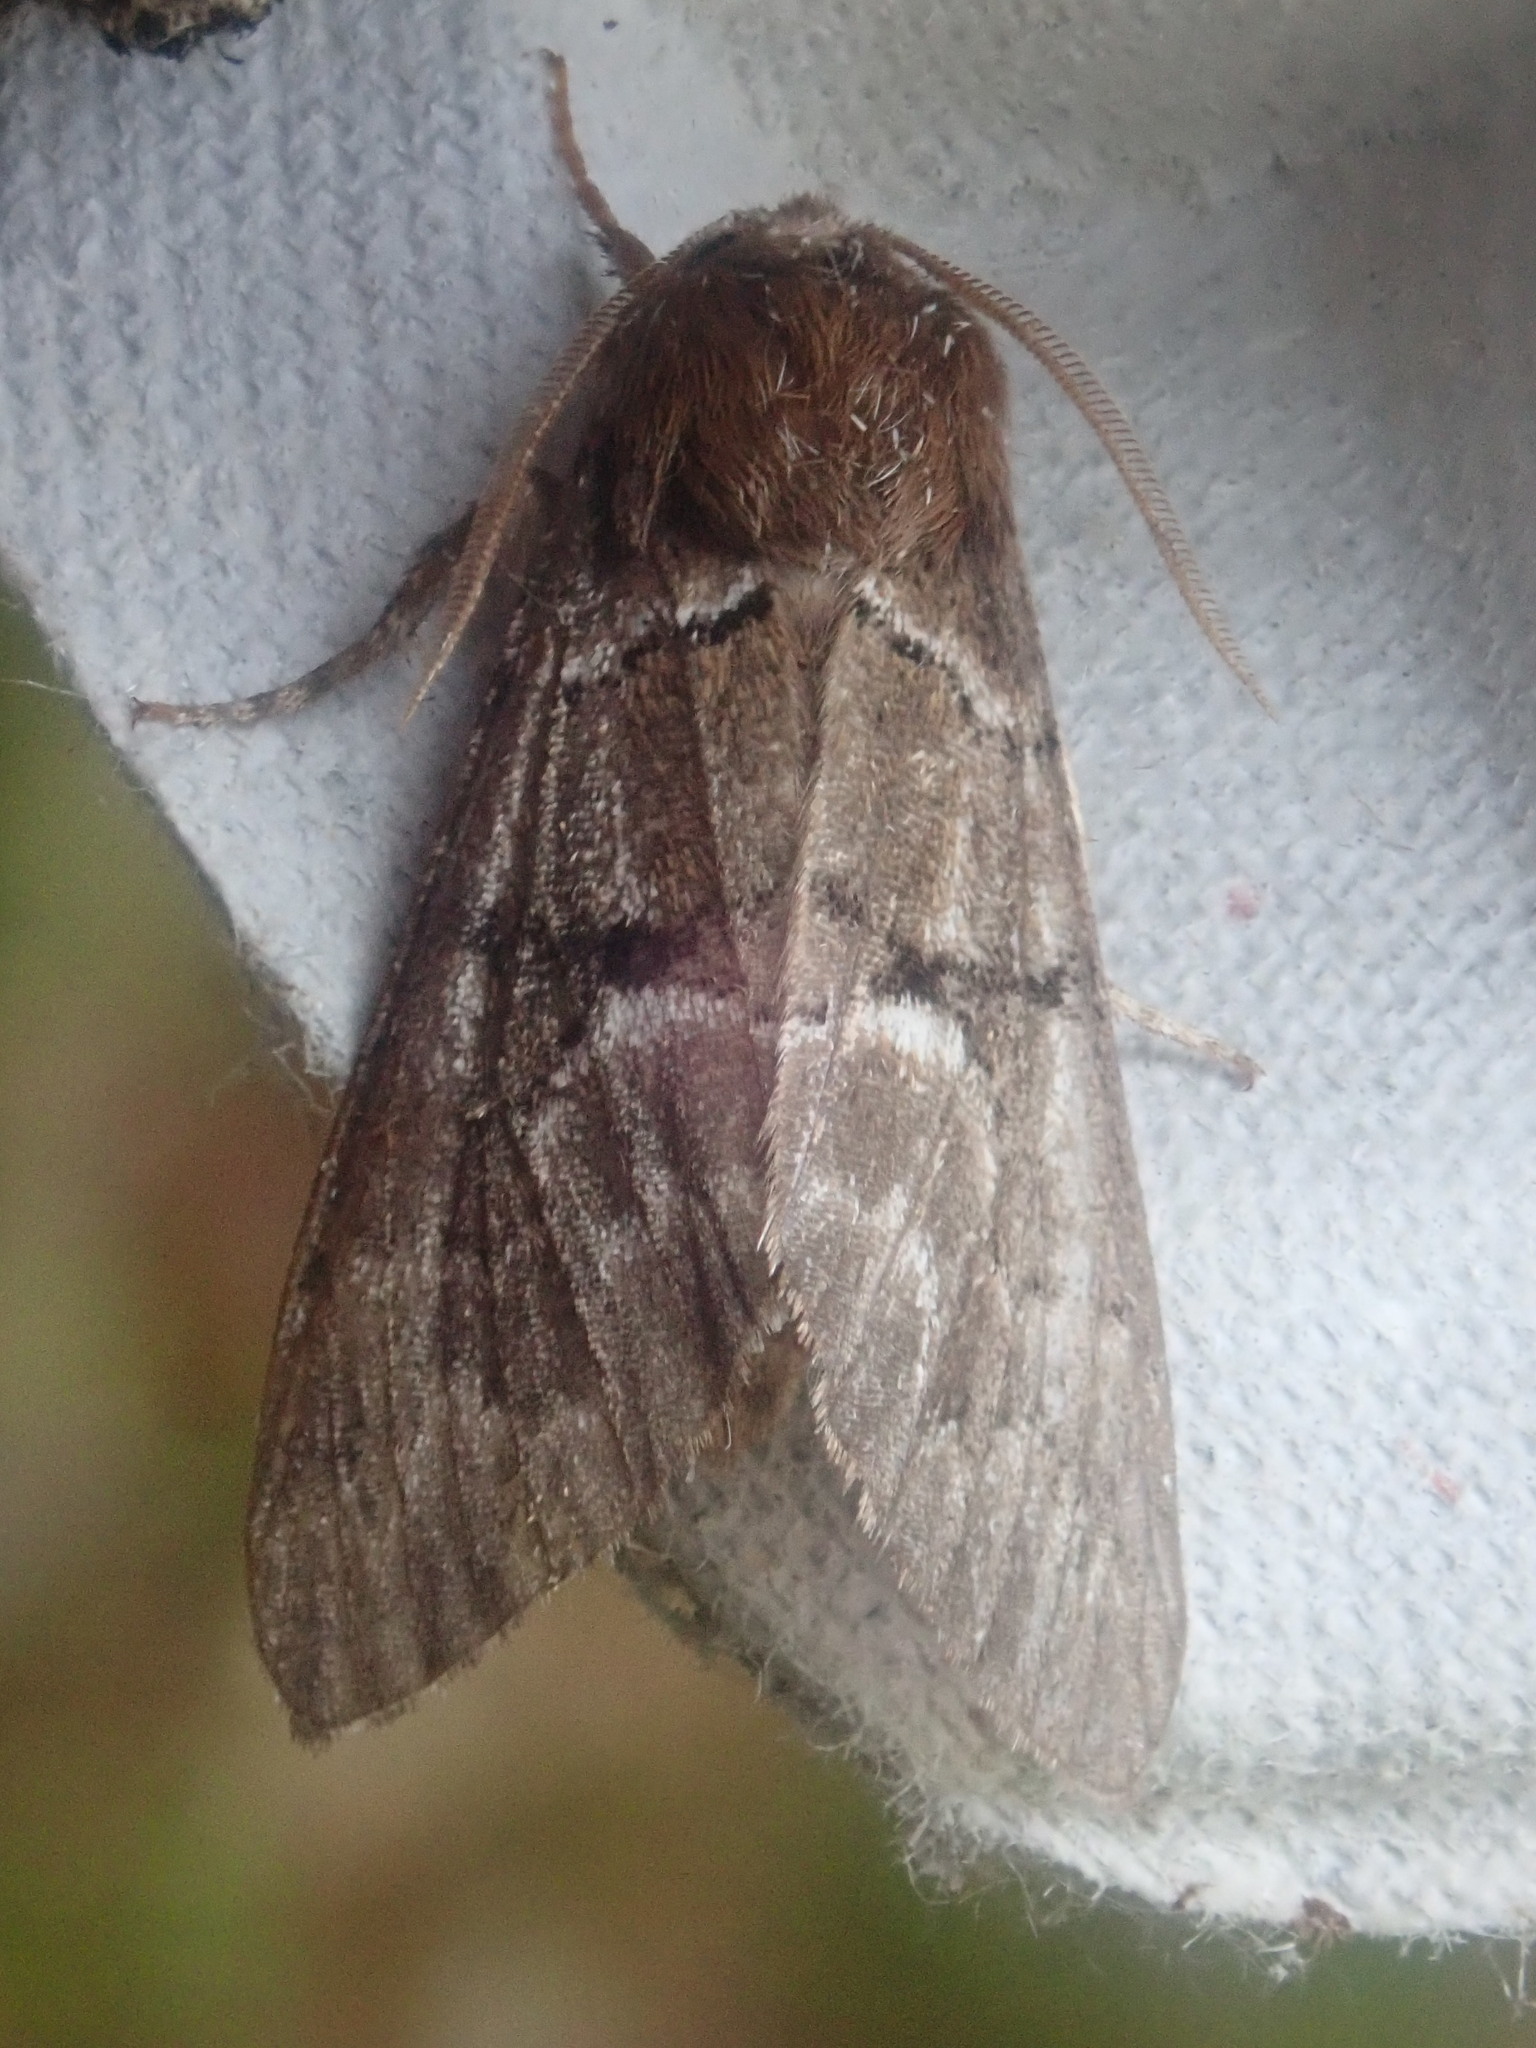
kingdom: Animalia
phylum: Arthropoda
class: Insecta
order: Lepidoptera
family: Noctuidae
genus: Panthea
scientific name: Panthea furcilla
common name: Eastern panthea moth
